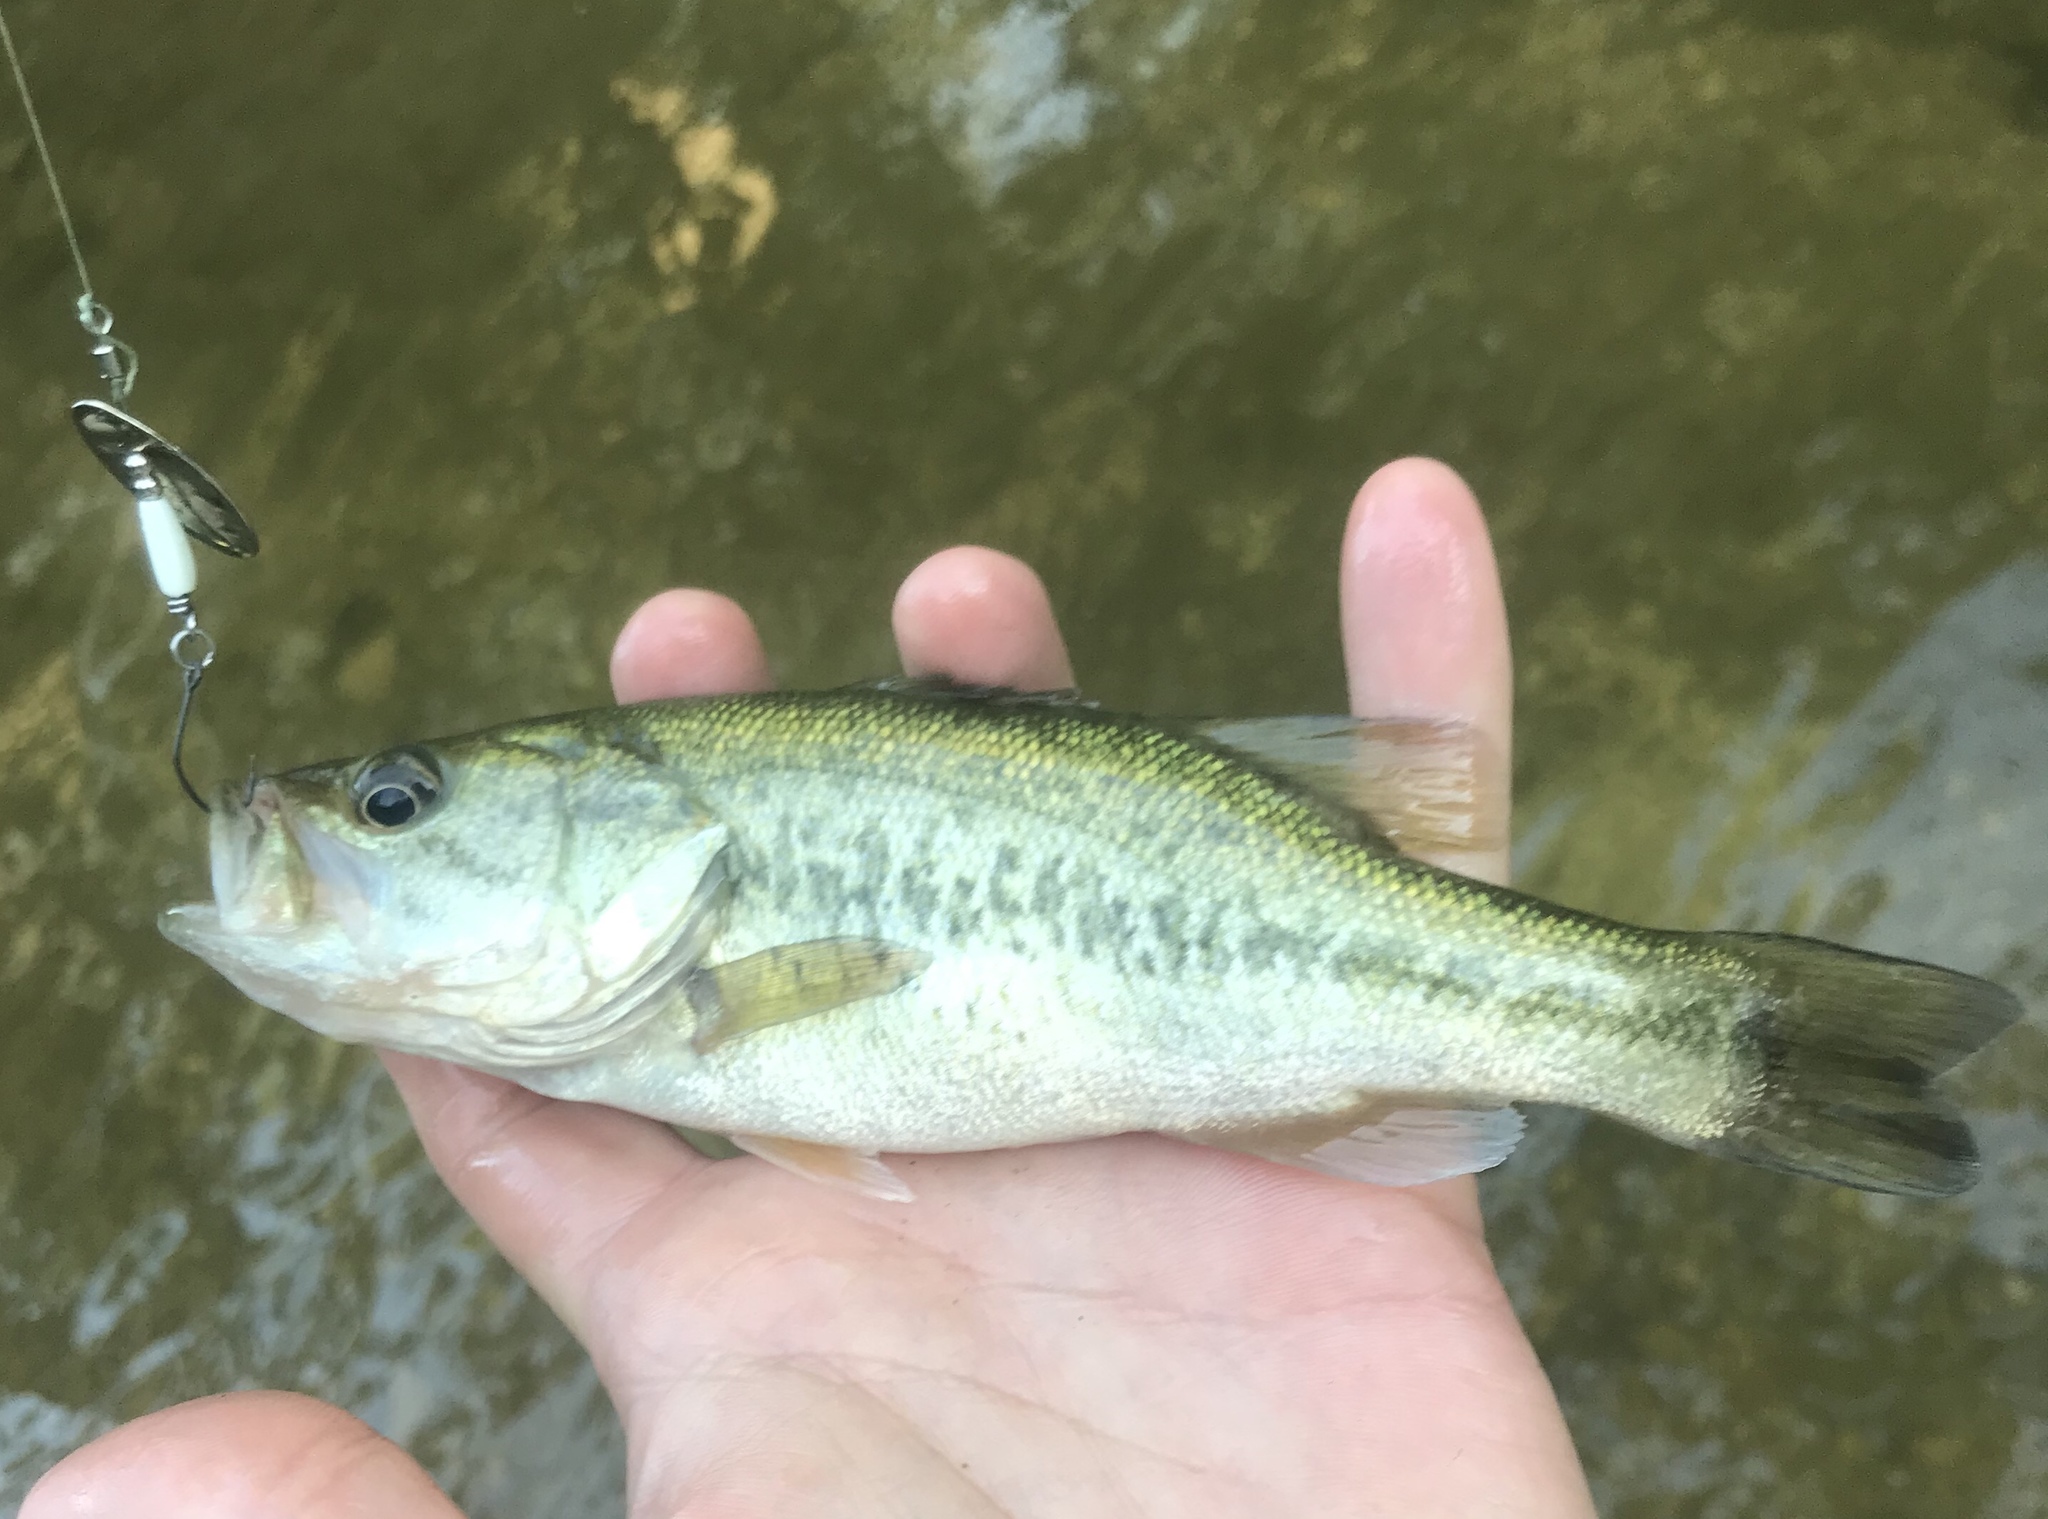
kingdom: Animalia
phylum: Chordata
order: Perciformes
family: Centrarchidae
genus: Micropterus
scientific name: Micropterus
